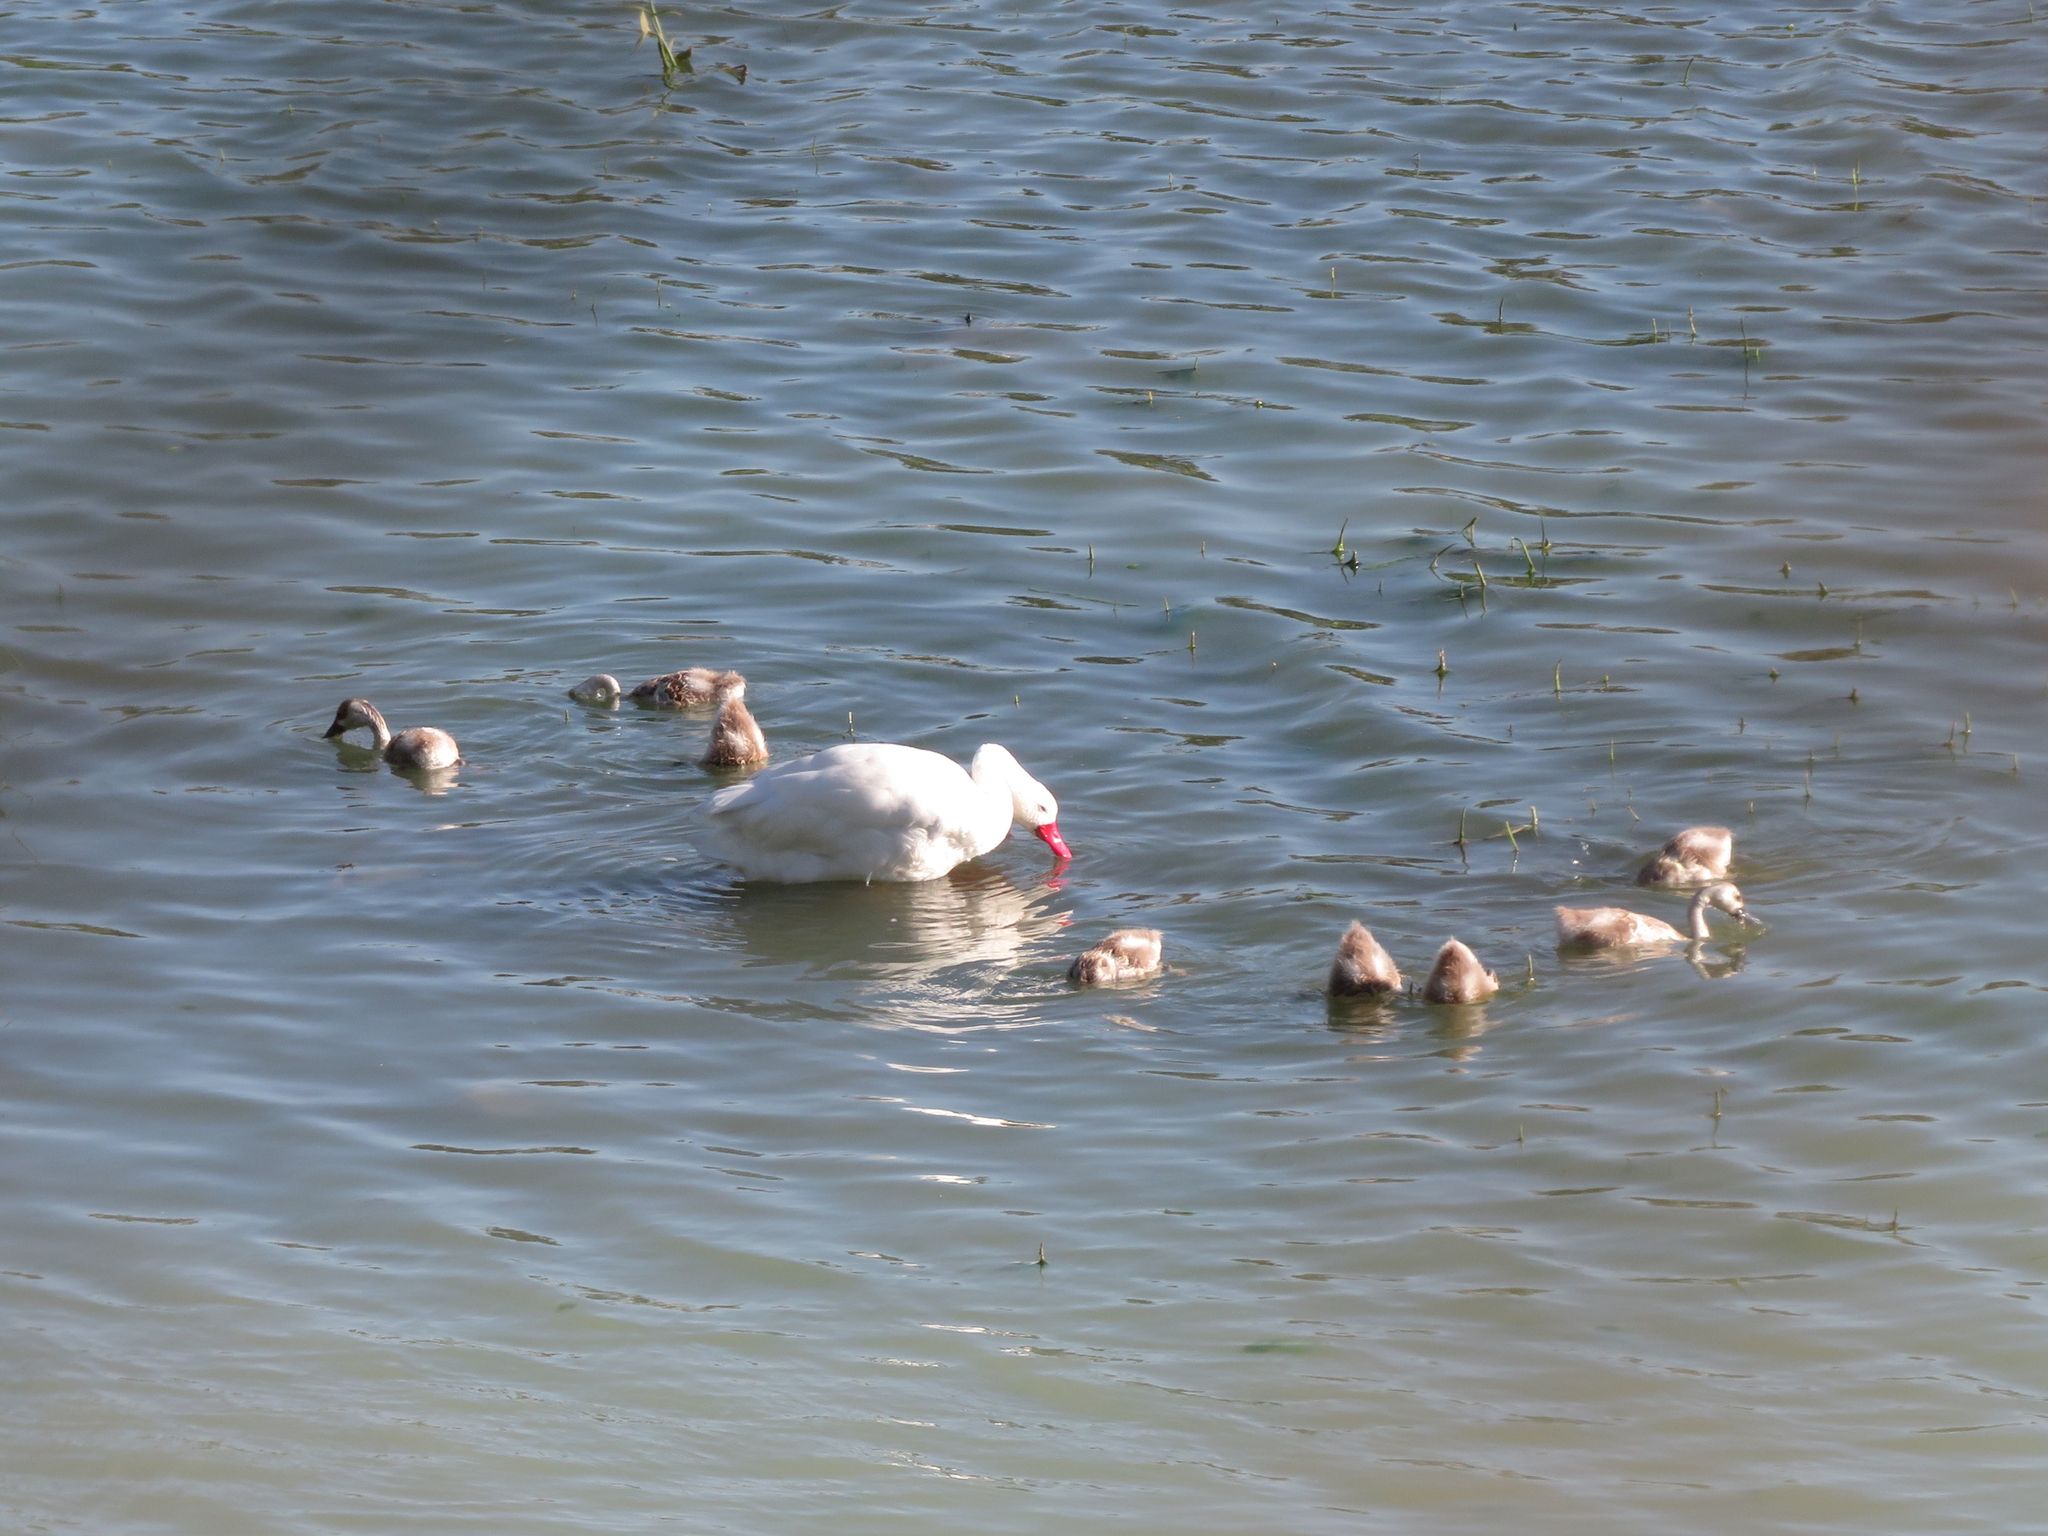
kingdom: Animalia
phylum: Chordata
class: Aves
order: Anseriformes
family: Anatidae
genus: Coscoroba
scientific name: Coscoroba coscoroba
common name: Coscoroba swan
